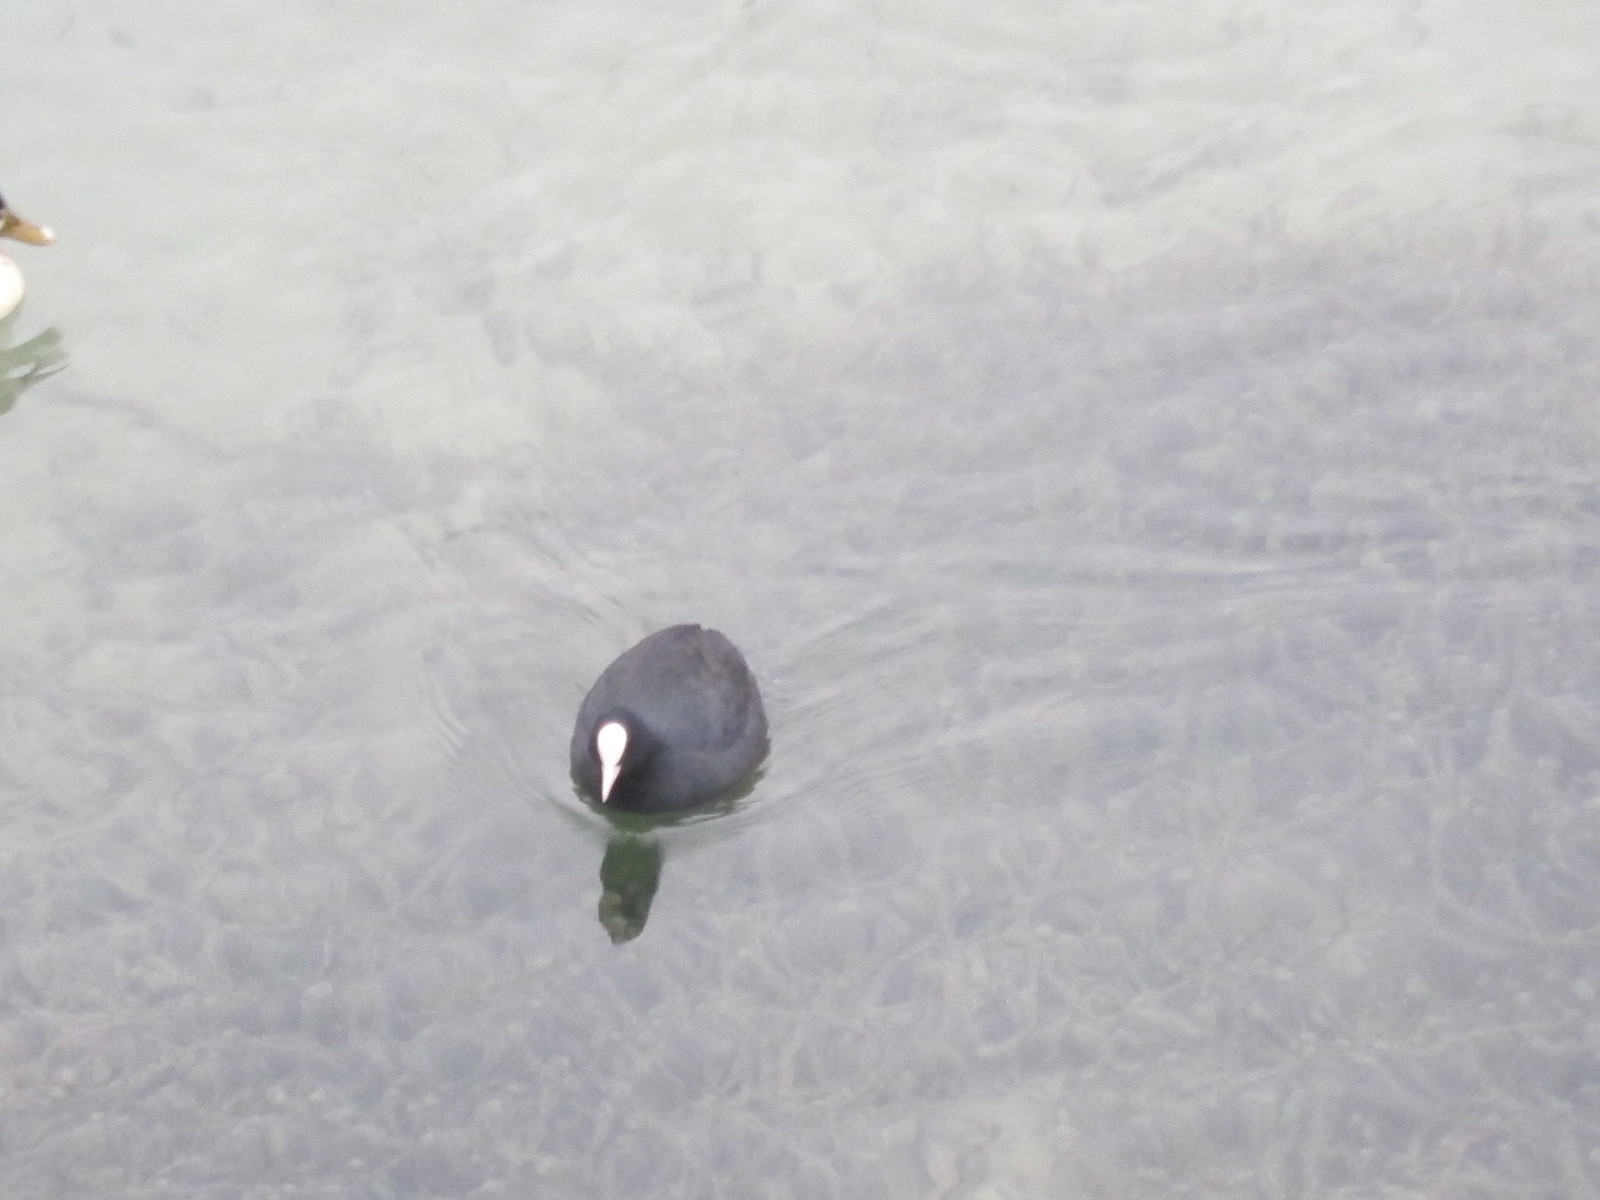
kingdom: Animalia
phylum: Chordata
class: Aves
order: Gruiformes
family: Rallidae
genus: Fulica
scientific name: Fulica atra
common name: Eurasian coot
